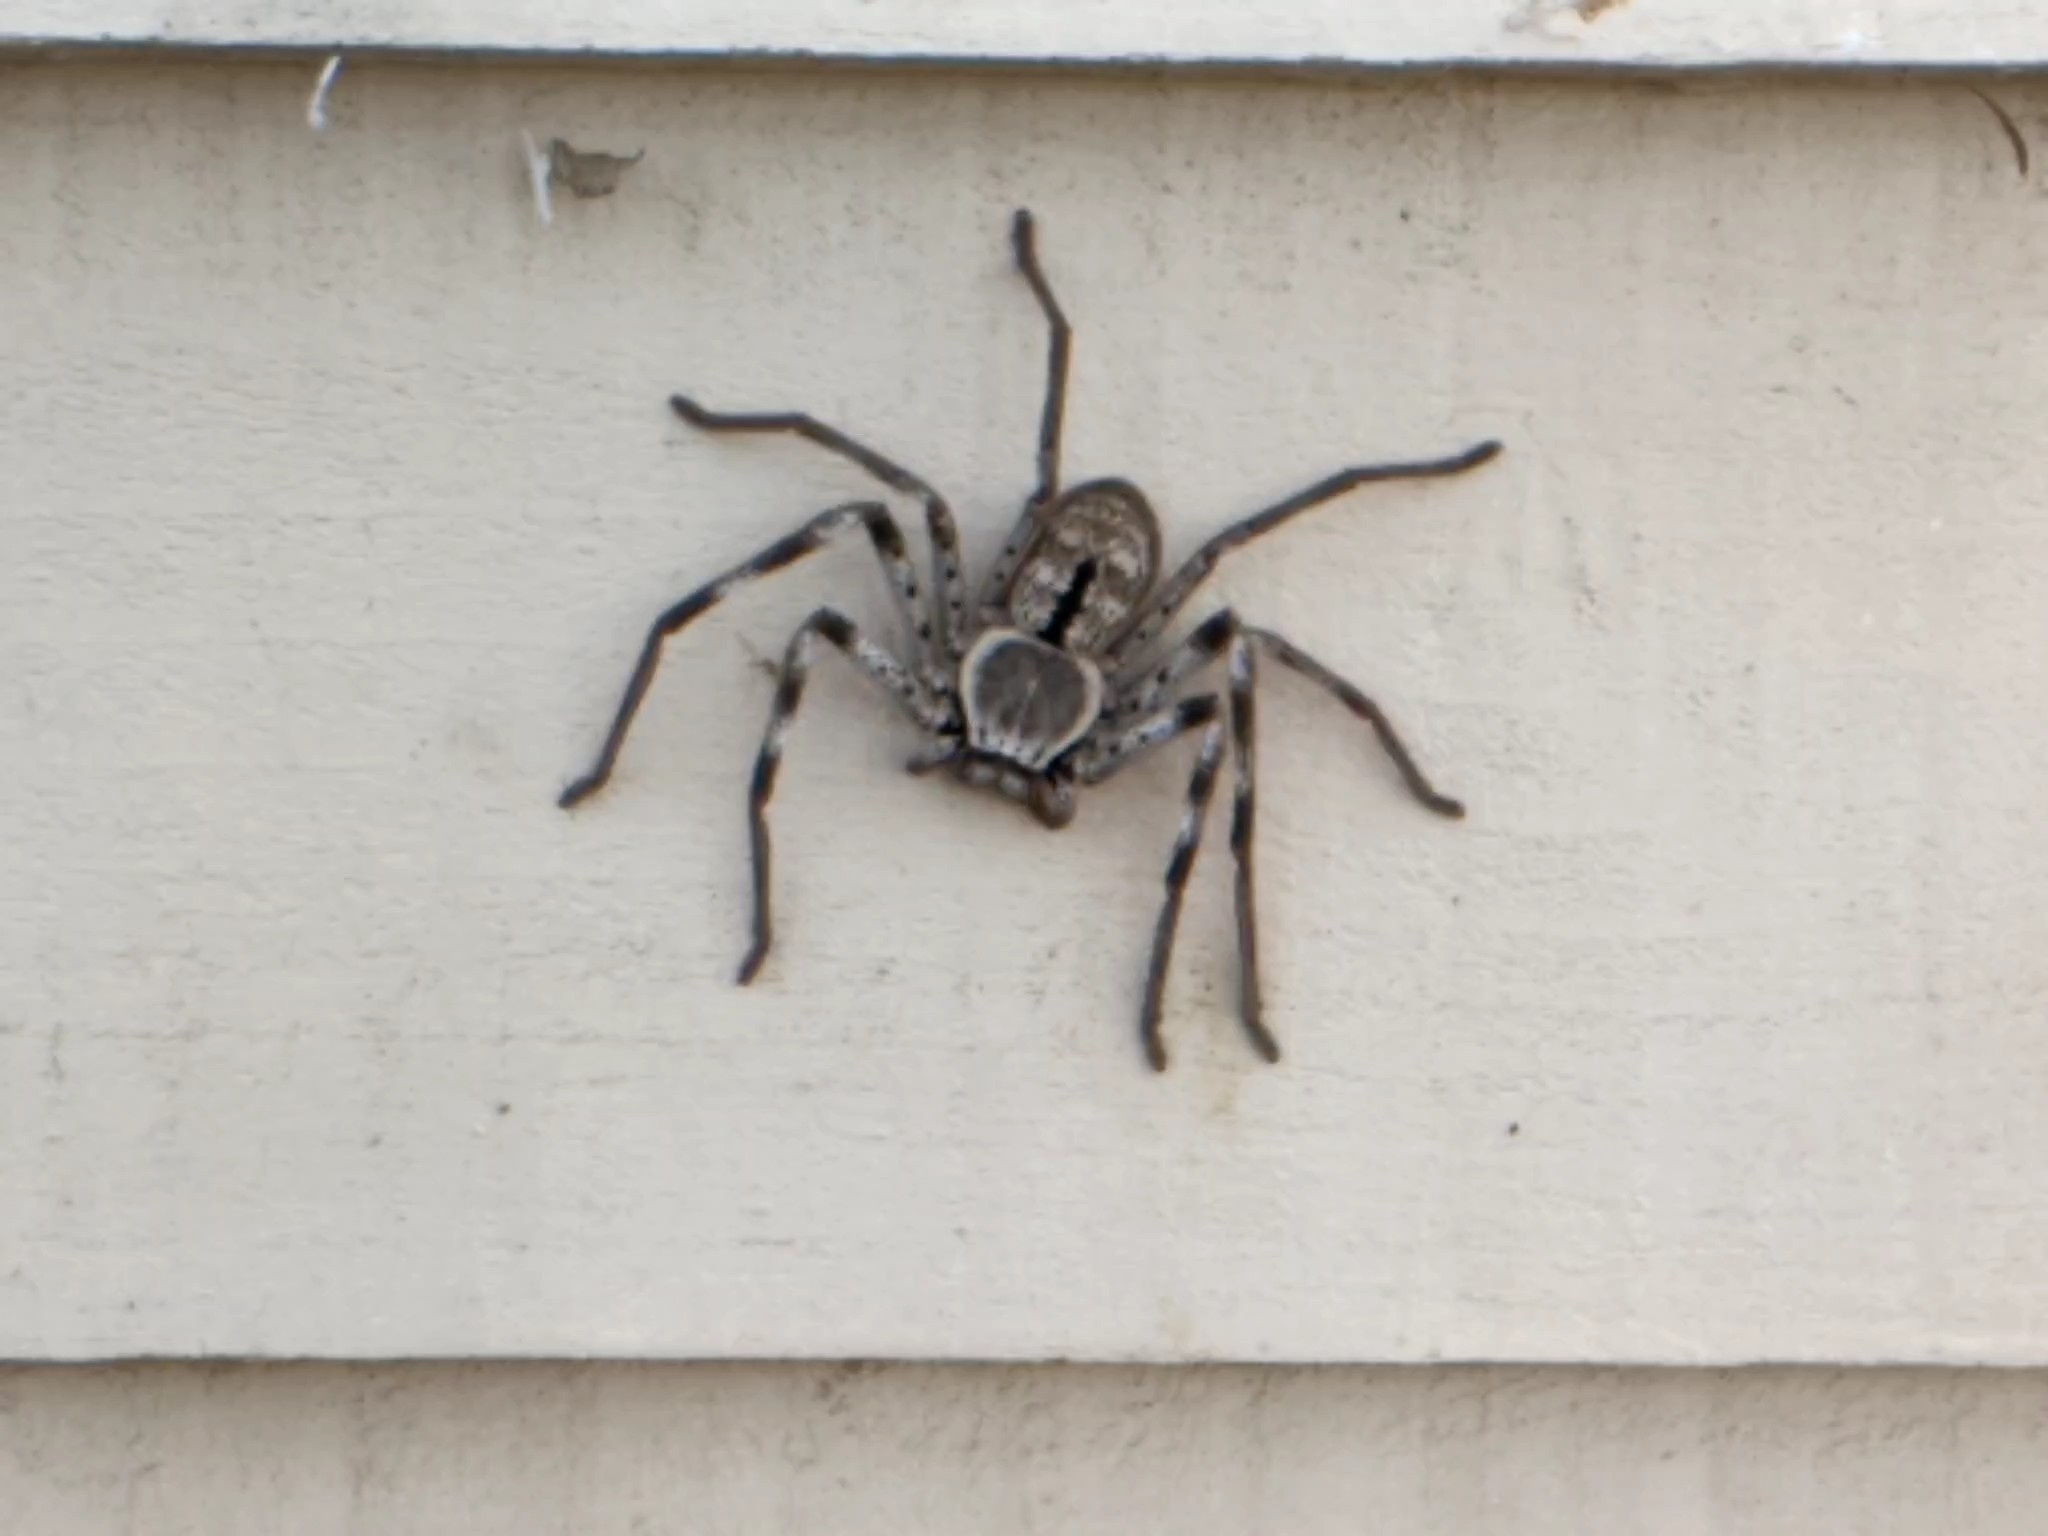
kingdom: Animalia
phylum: Arthropoda
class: Arachnida
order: Araneae
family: Sparassidae
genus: Holconia
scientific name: Holconia immanis
